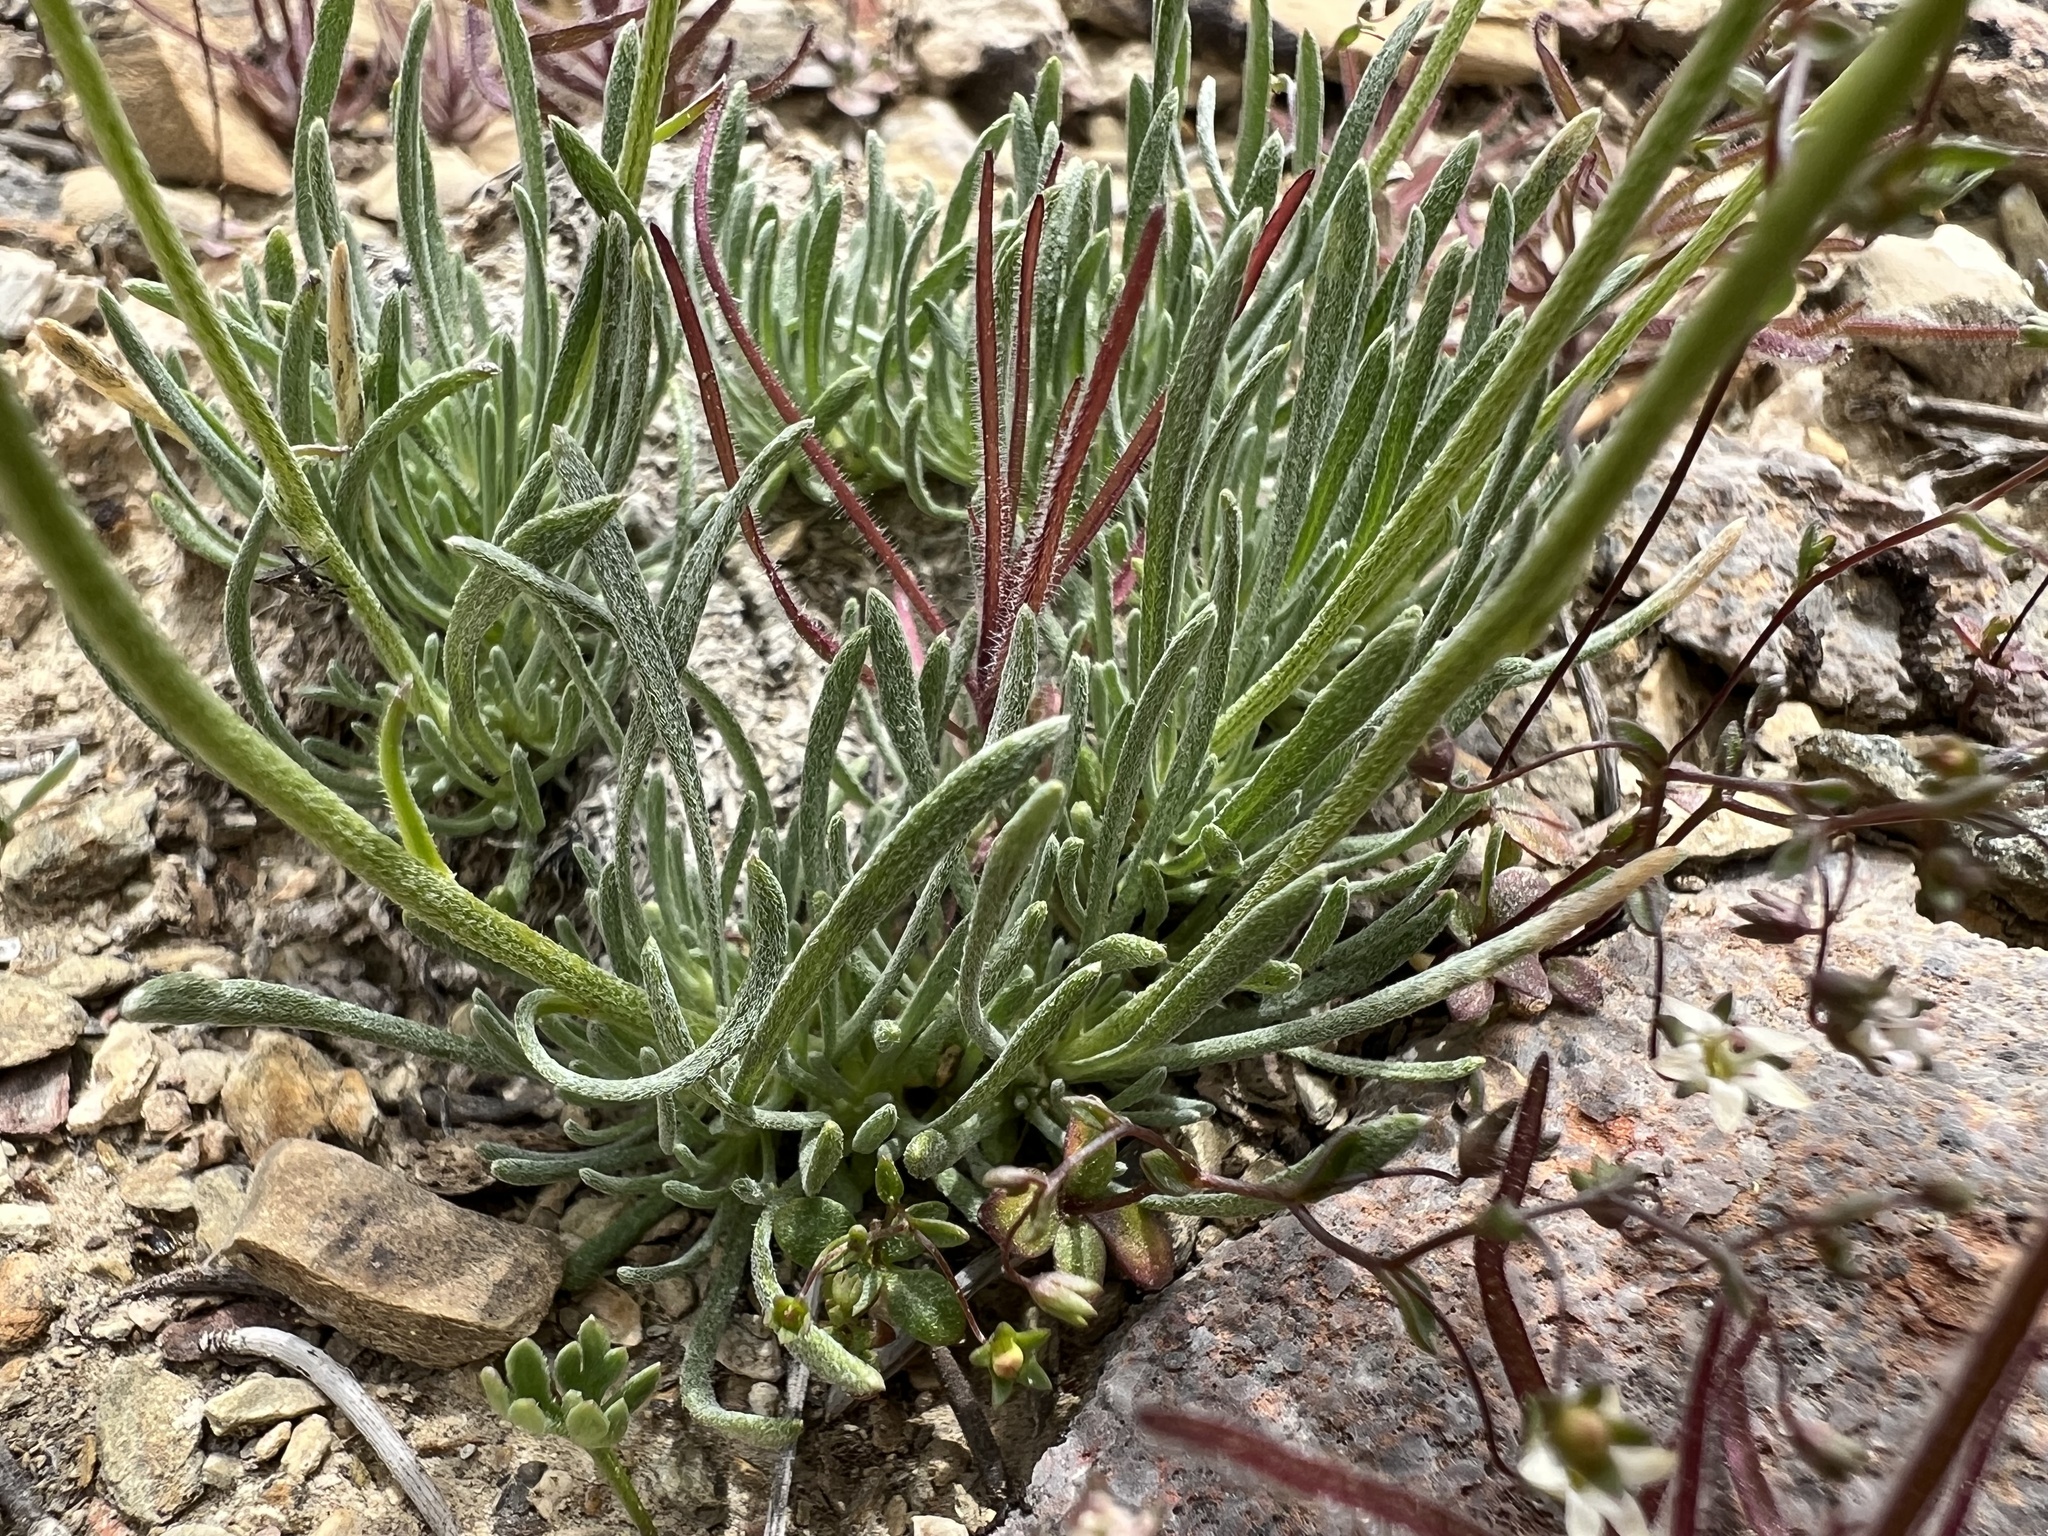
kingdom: Plantae
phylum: Tracheophyta
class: Magnoliopsida
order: Asterales
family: Asteraceae
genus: Erigeron
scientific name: Erigeron compactus
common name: Fern-leaf fleabane
